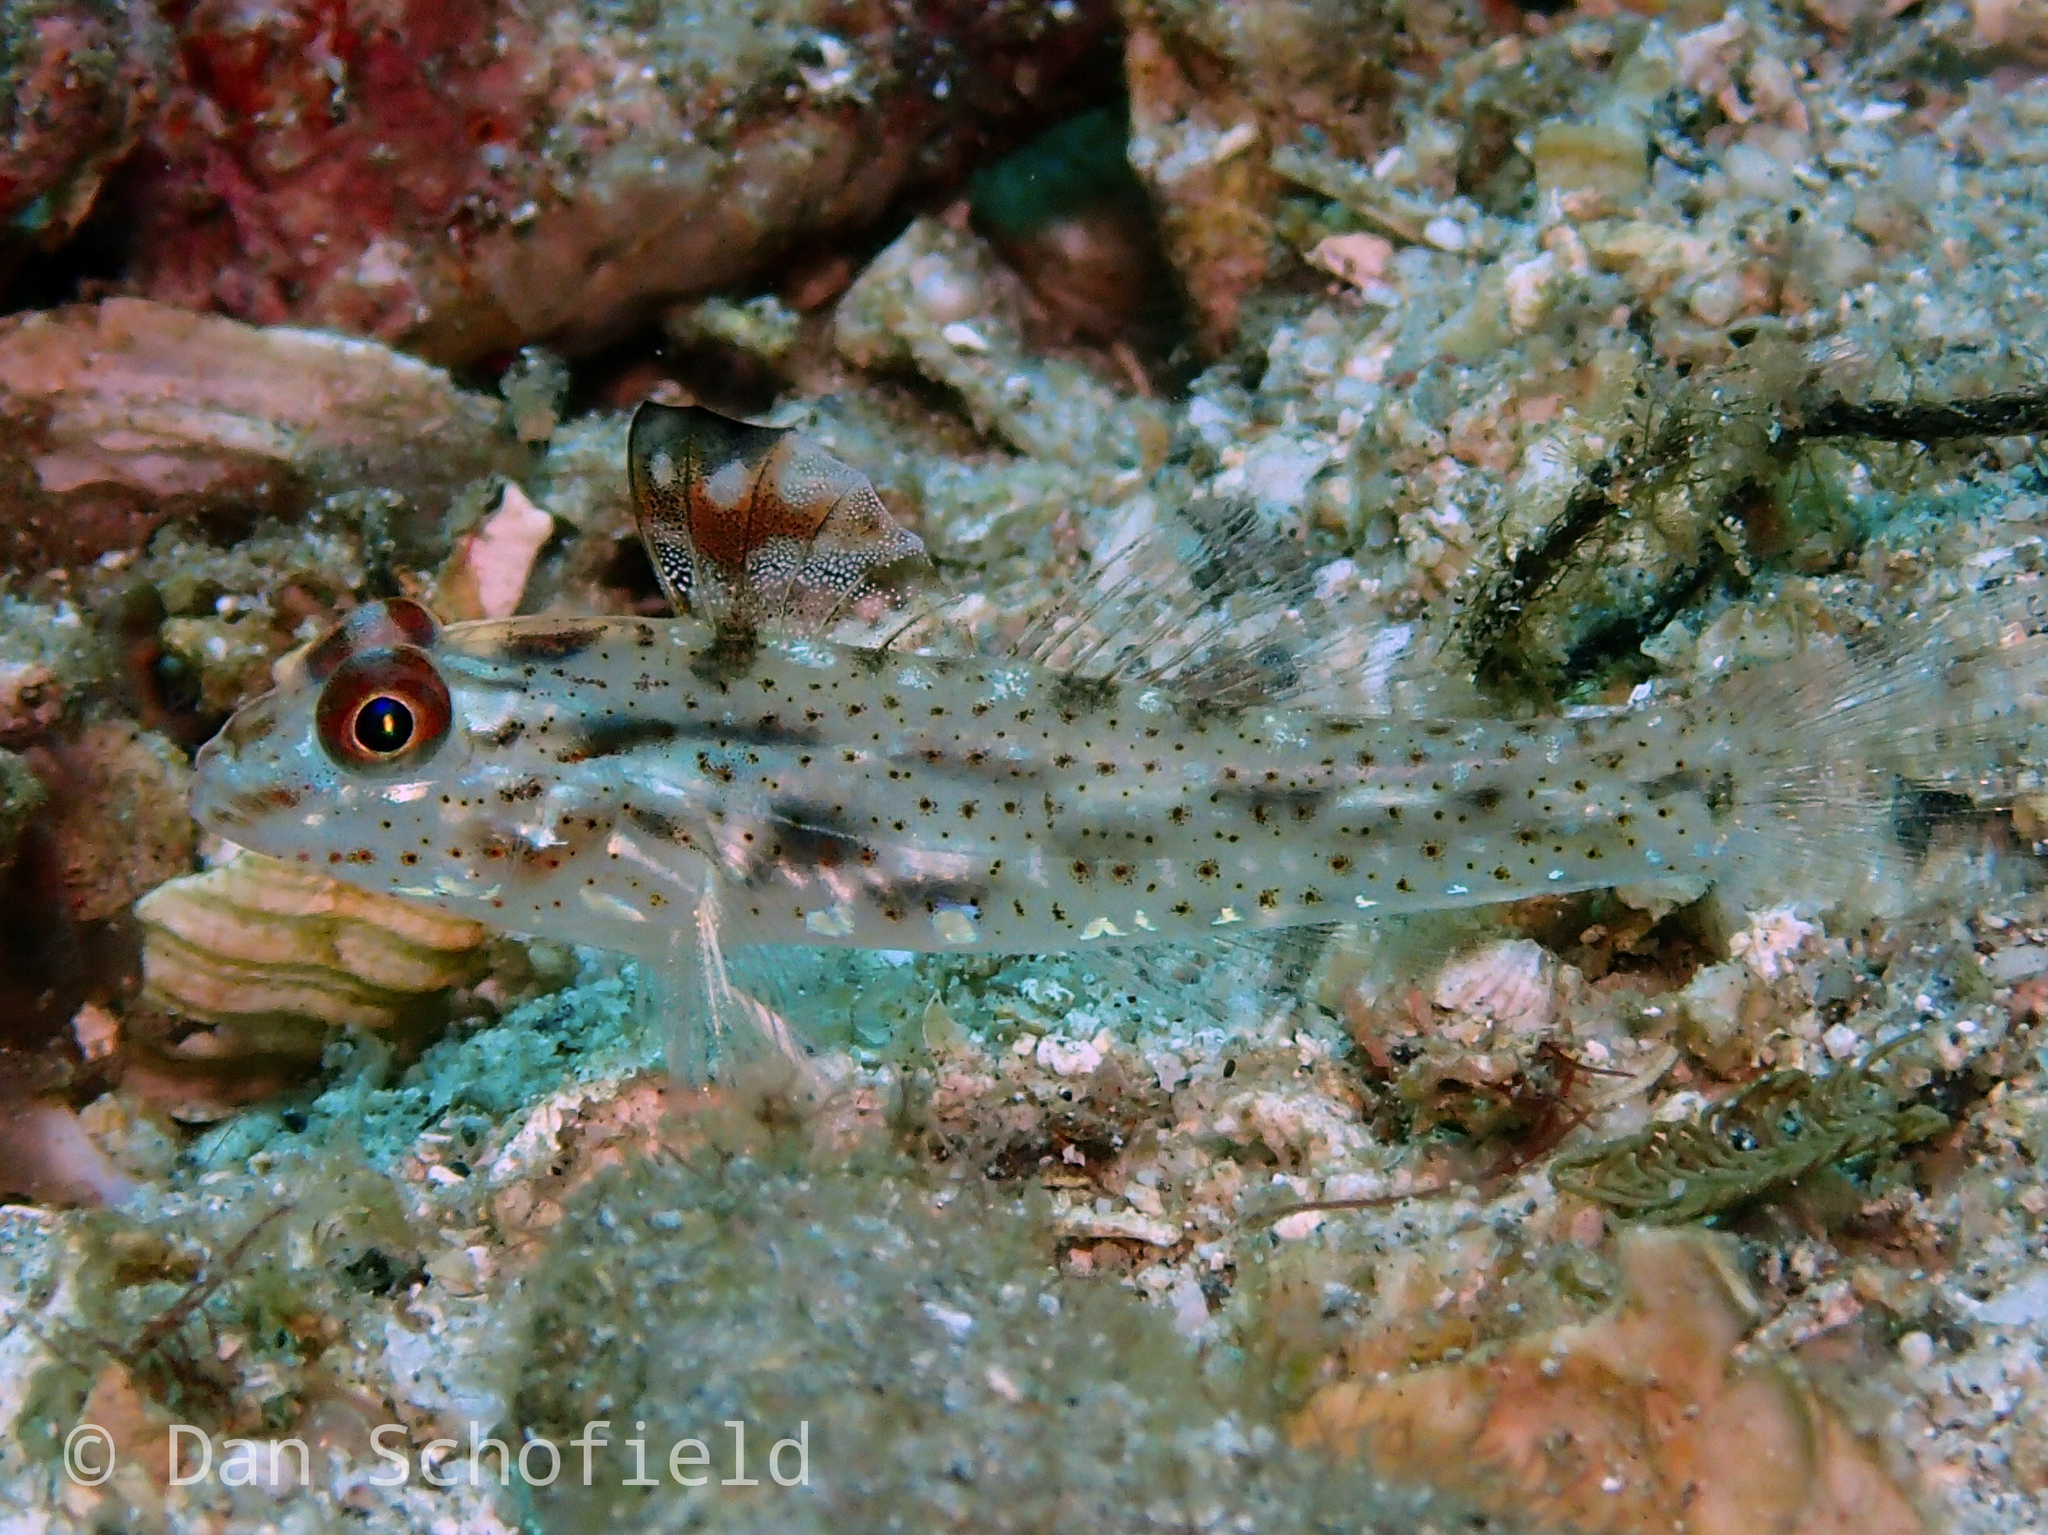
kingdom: Animalia
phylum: Chordata
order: Perciformes
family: Gobiidae
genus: Fusigobius
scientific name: Fusigobius signipinnis
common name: Flasher sand-goby
